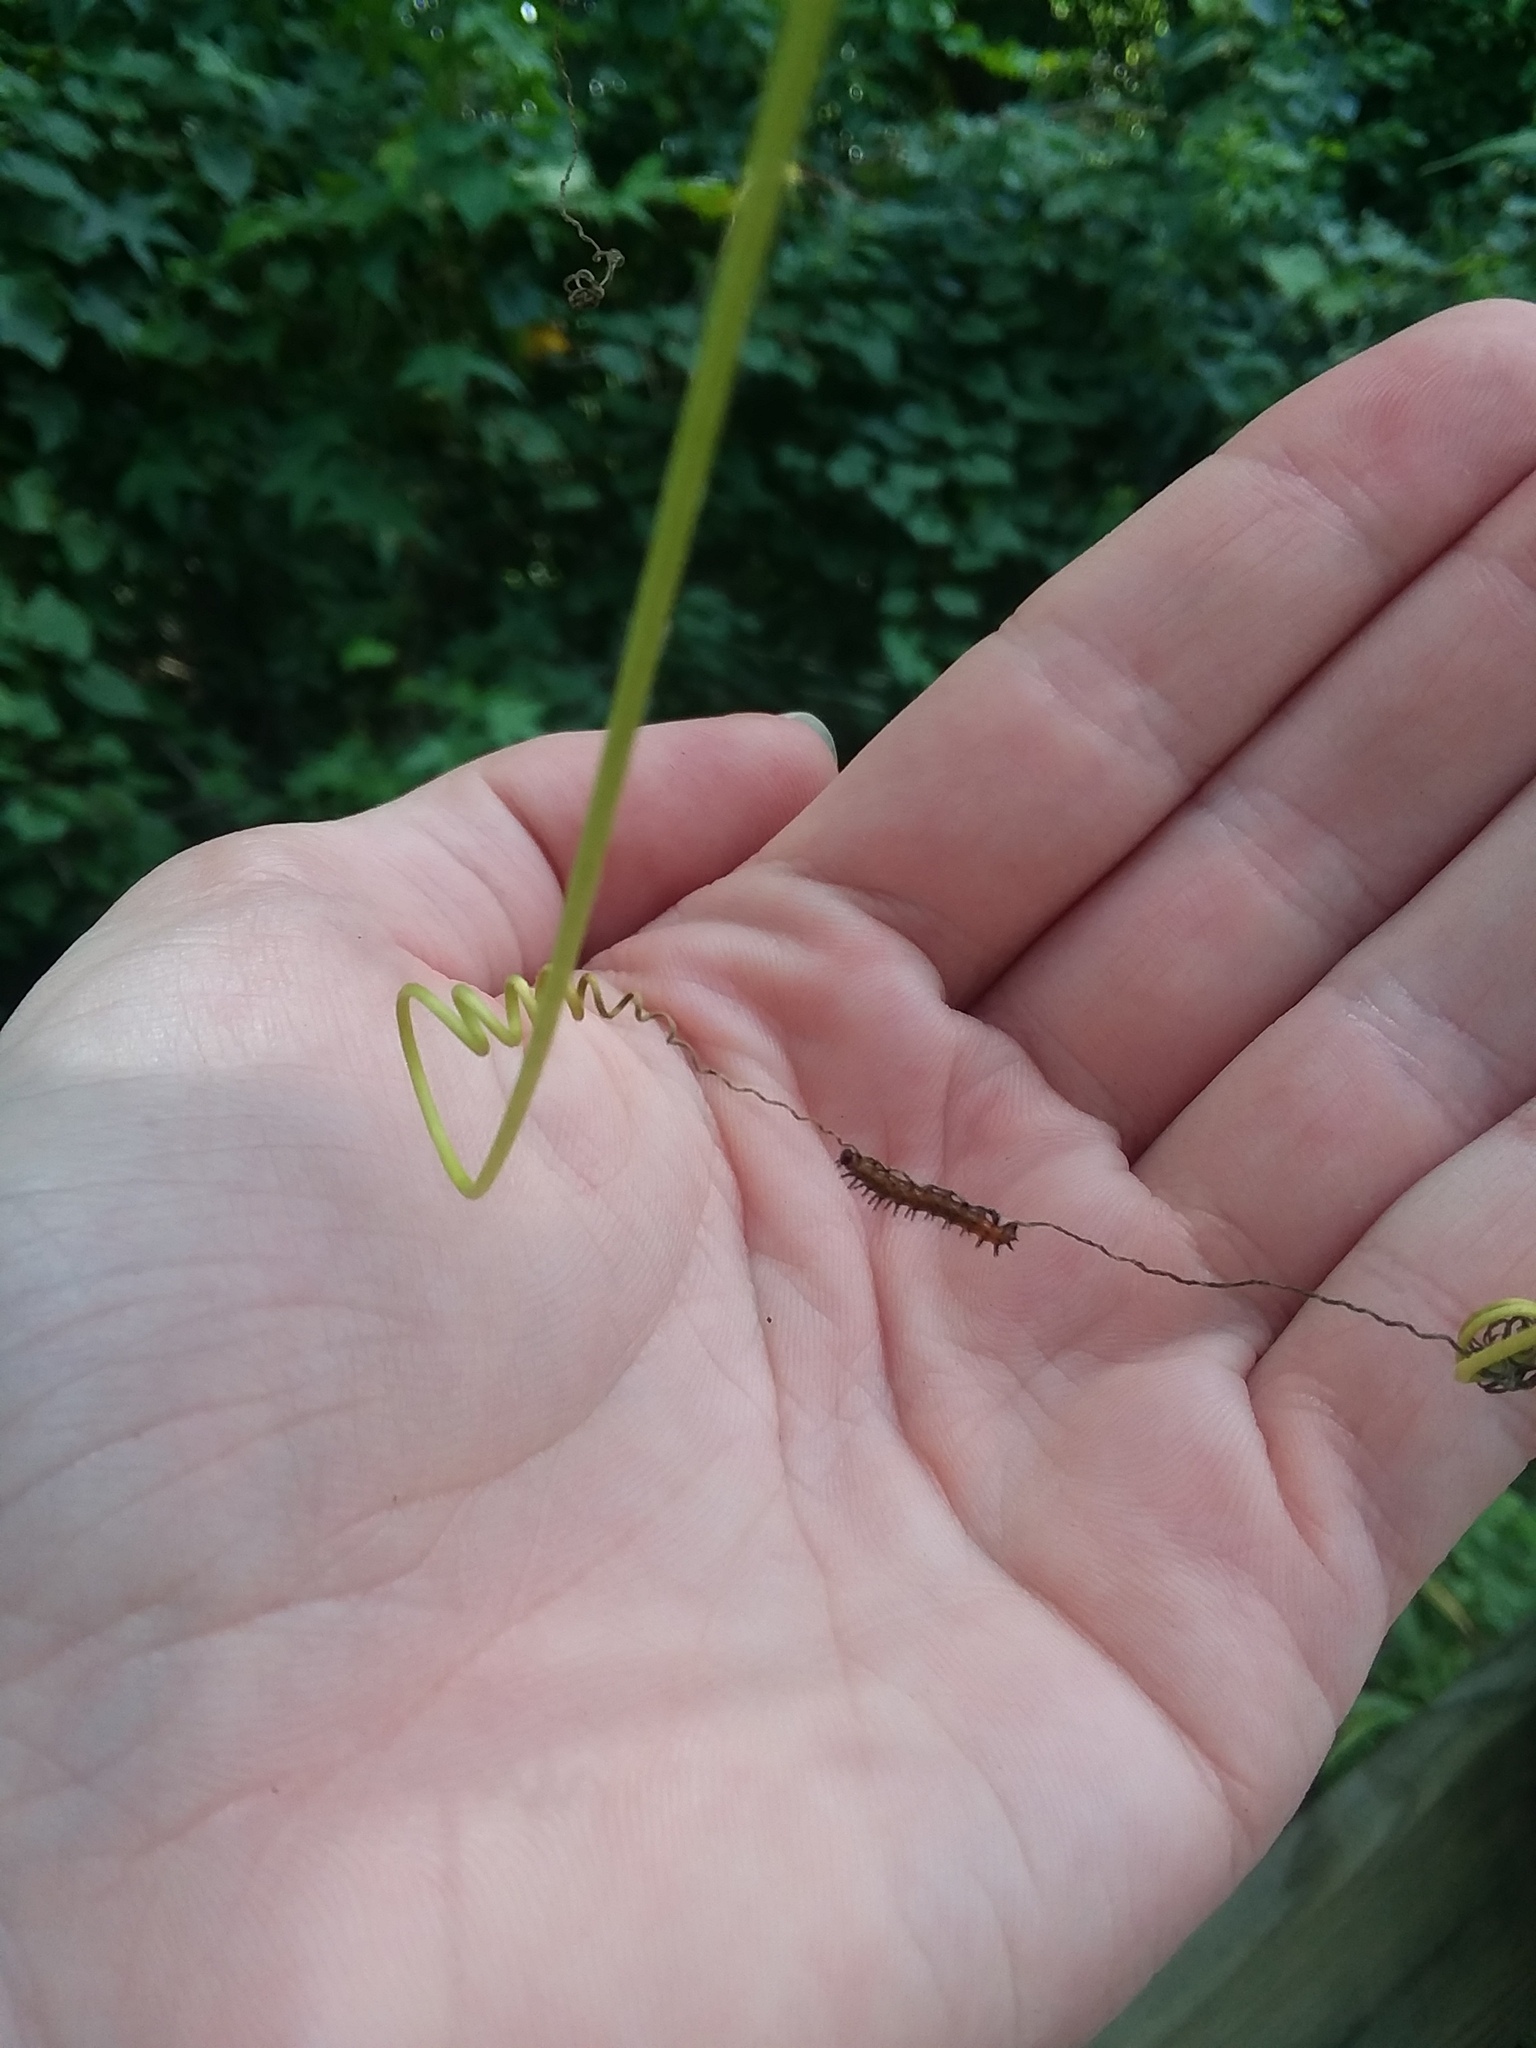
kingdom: Animalia
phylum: Arthropoda
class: Insecta
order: Lepidoptera
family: Nymphalidae
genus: Dione
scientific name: Dione vanillae
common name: Gulf fritillary
